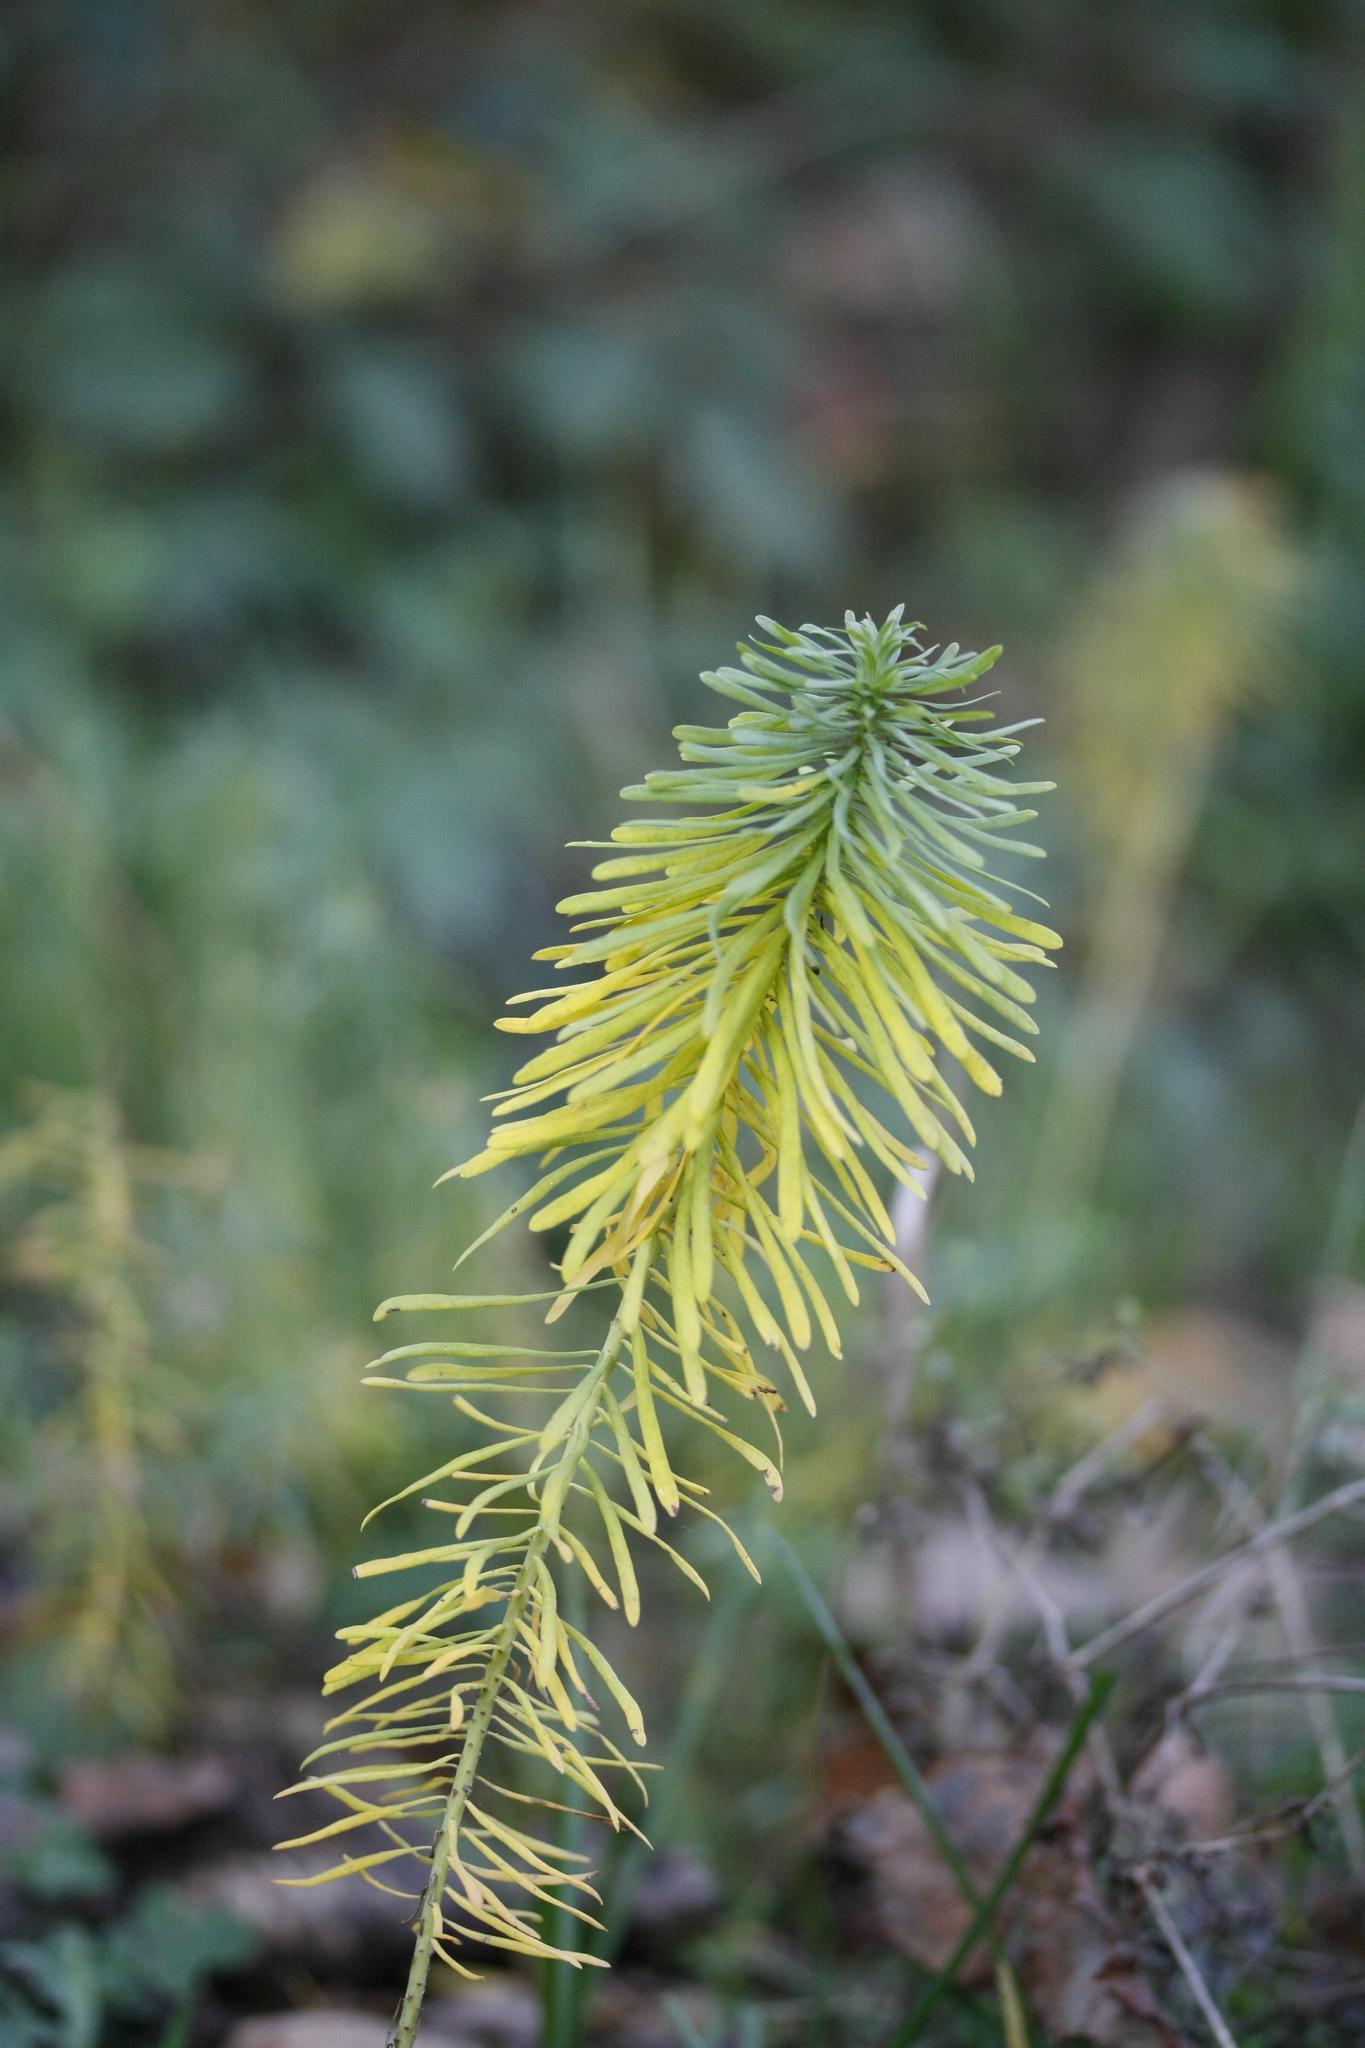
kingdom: Plantae
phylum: Tracheophyta
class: Magnoliopsida
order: Malpighiales
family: Euphorbiaceae
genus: Euphorbia
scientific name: Euphorbia cyparissias
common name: Cypress spurge
